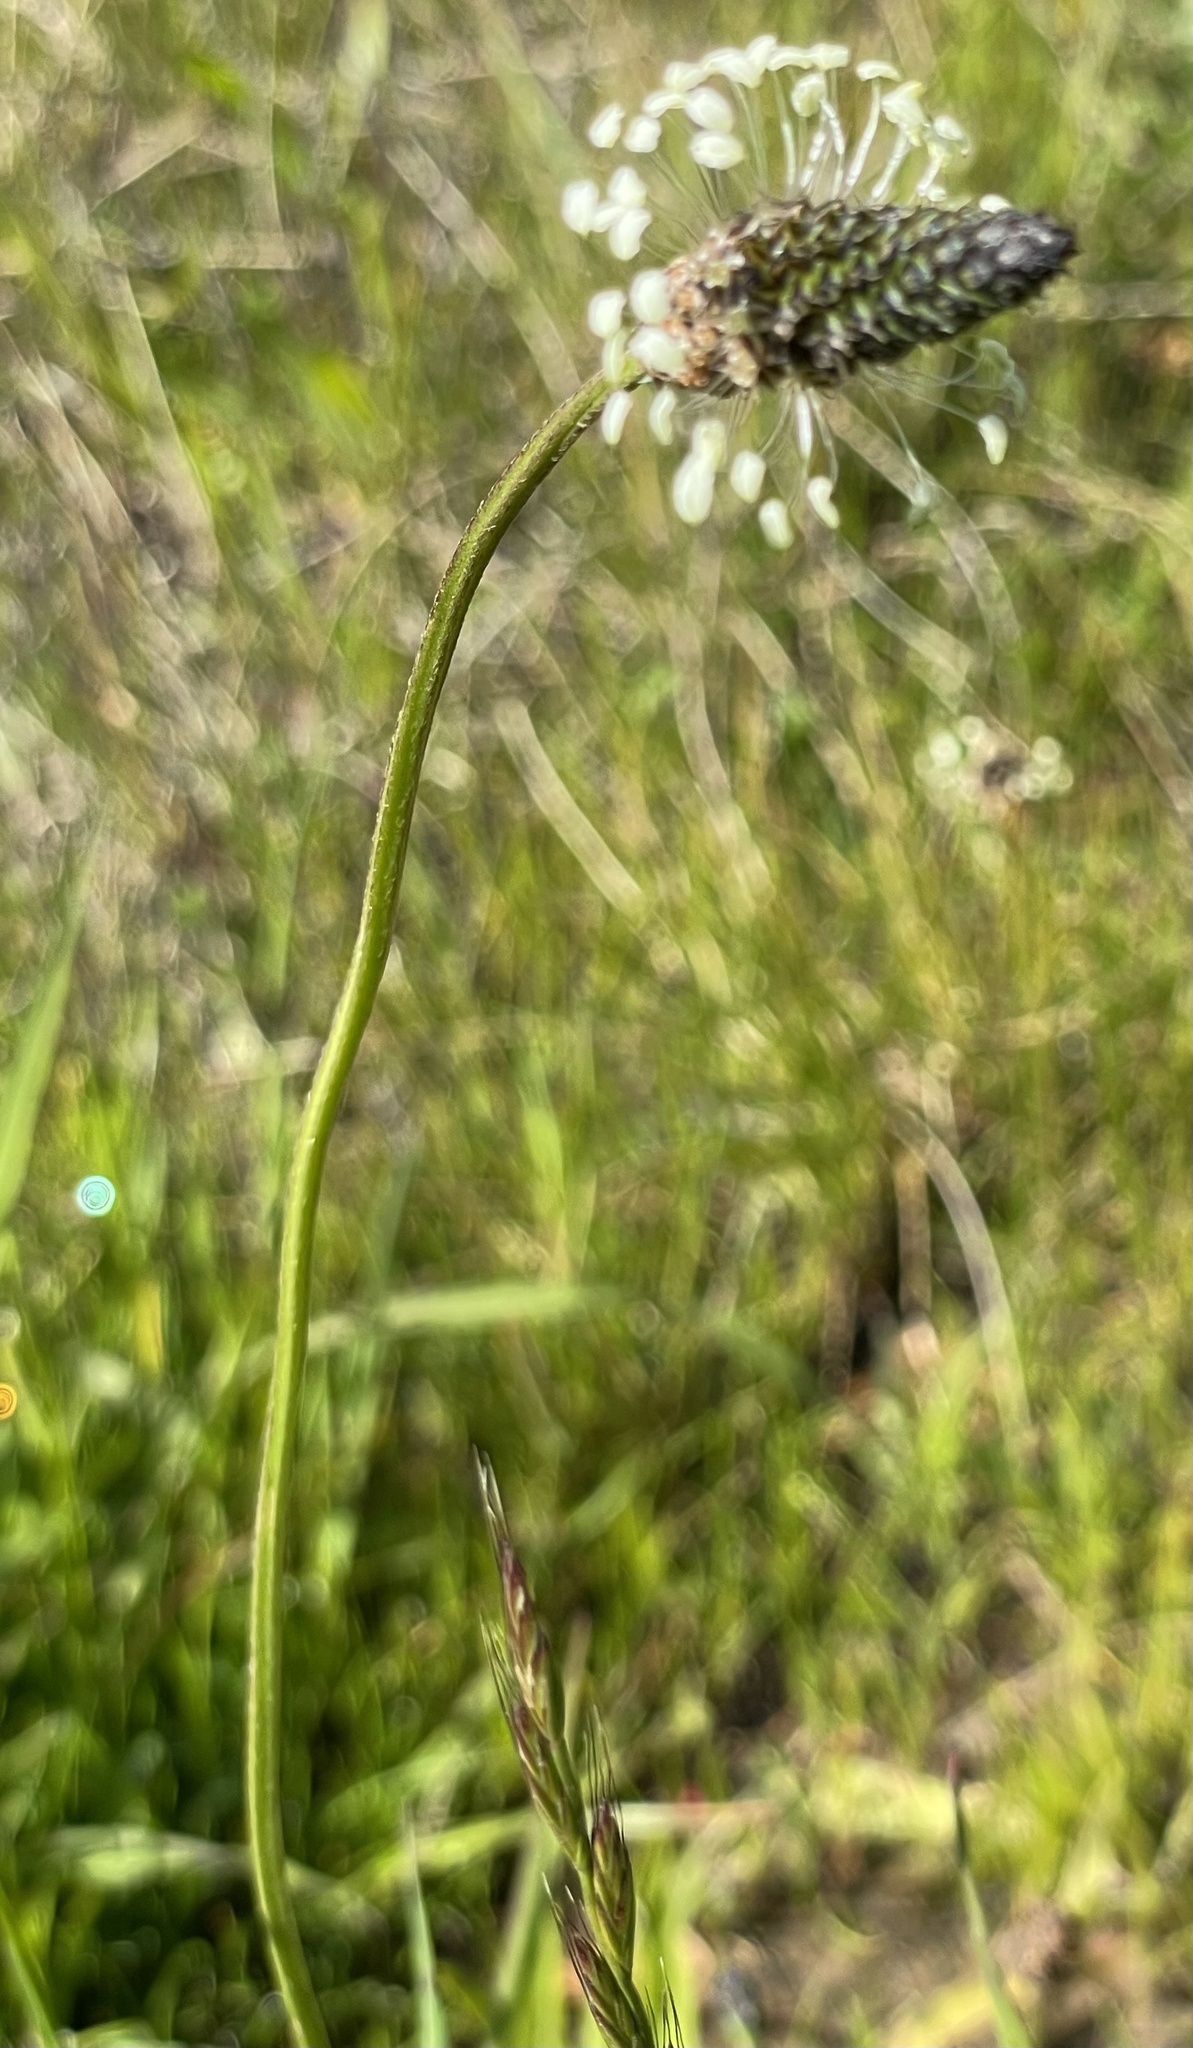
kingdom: Plantae
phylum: Tracheophyta
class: Magnoliopsida
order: Lamiales
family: Plantaginaceae
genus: Plantago
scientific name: Plantago lanceolata
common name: Ribwort plantain
